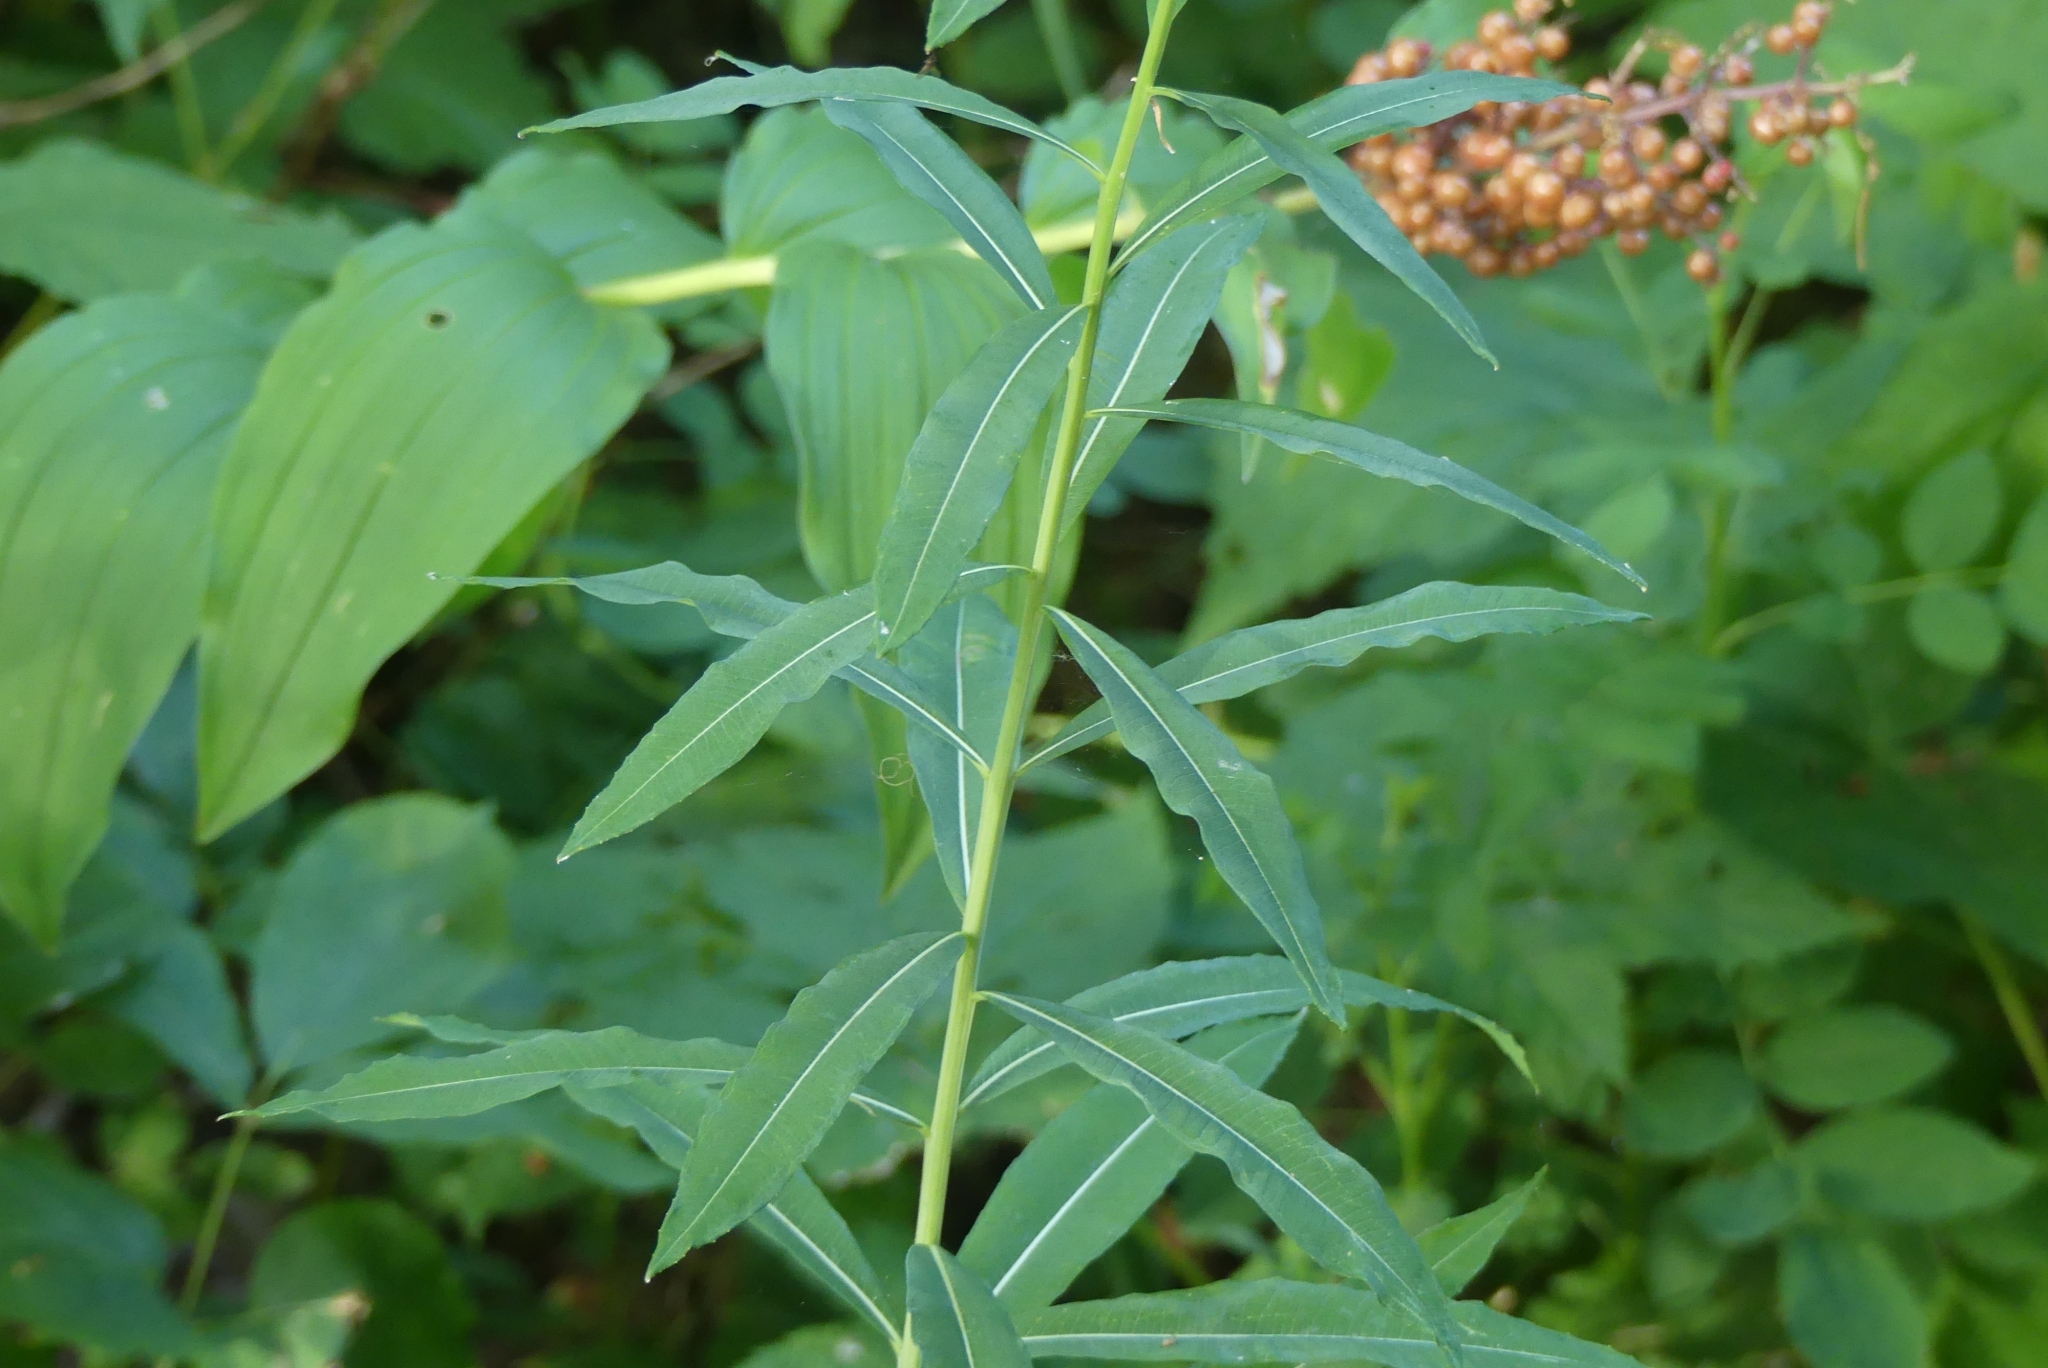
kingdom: Plantae
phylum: Tracheophyta
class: Magnoliopsida
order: Myrtales
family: Onagraceae
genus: Chamaenerion
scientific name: Chamaenerion angustifolium
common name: Fireweed
